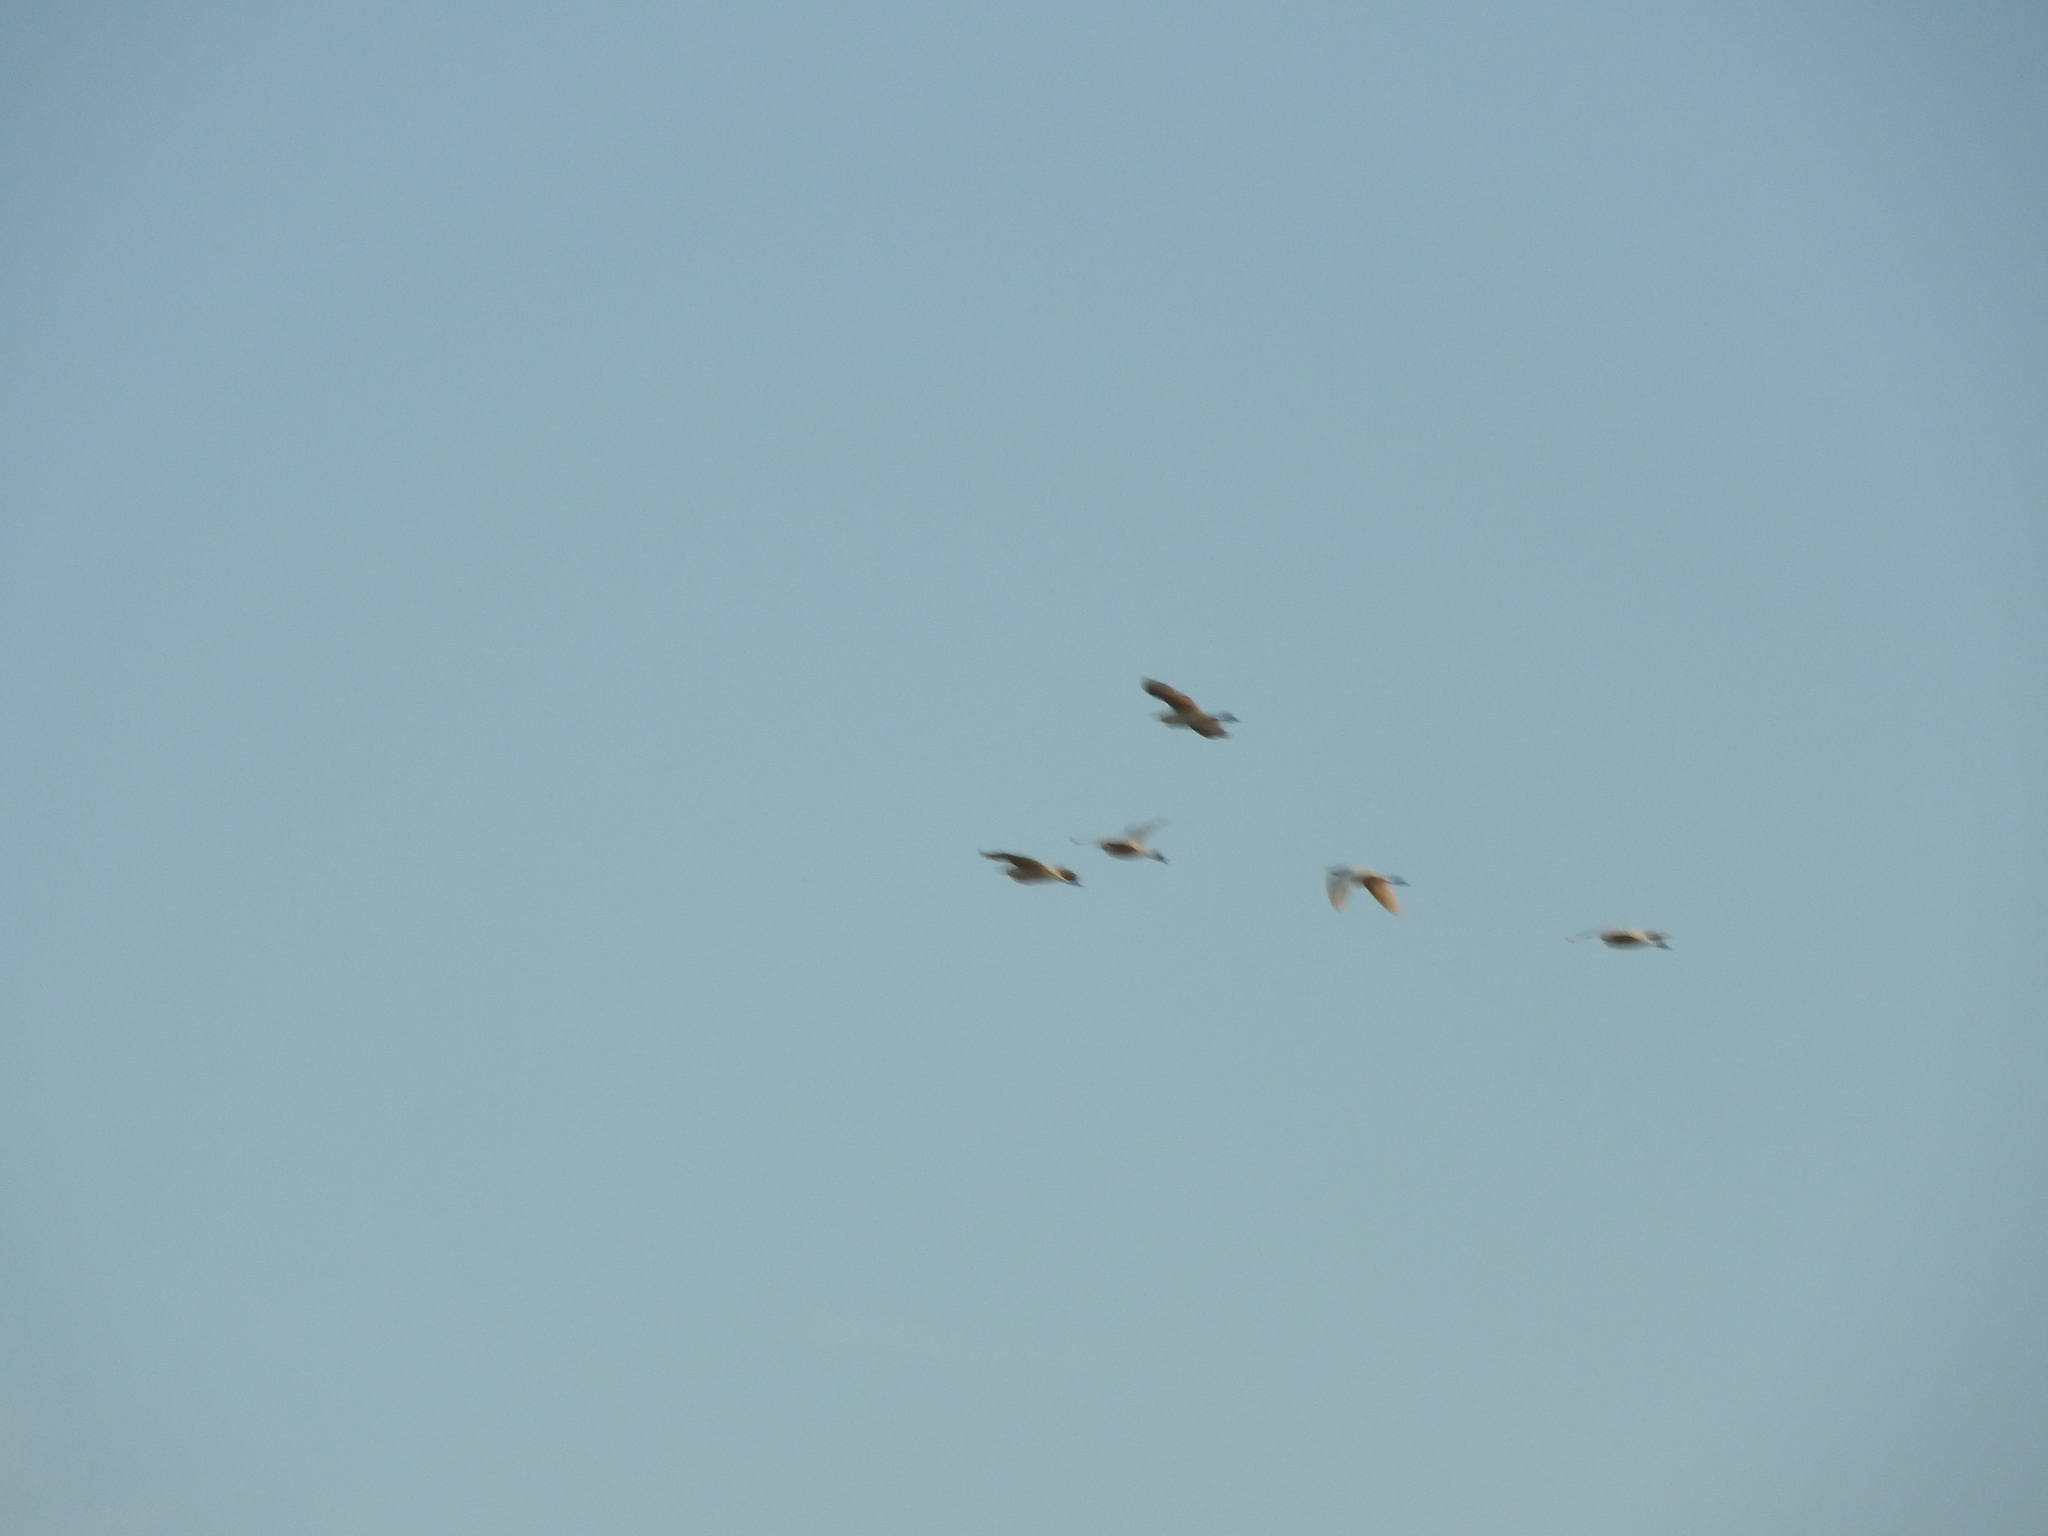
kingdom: Animalia
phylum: Chordata
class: Aves
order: Pelecaniformes
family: Ardeidae
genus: Bubulcus
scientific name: Bubulcus ibis
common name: Cattle egret
